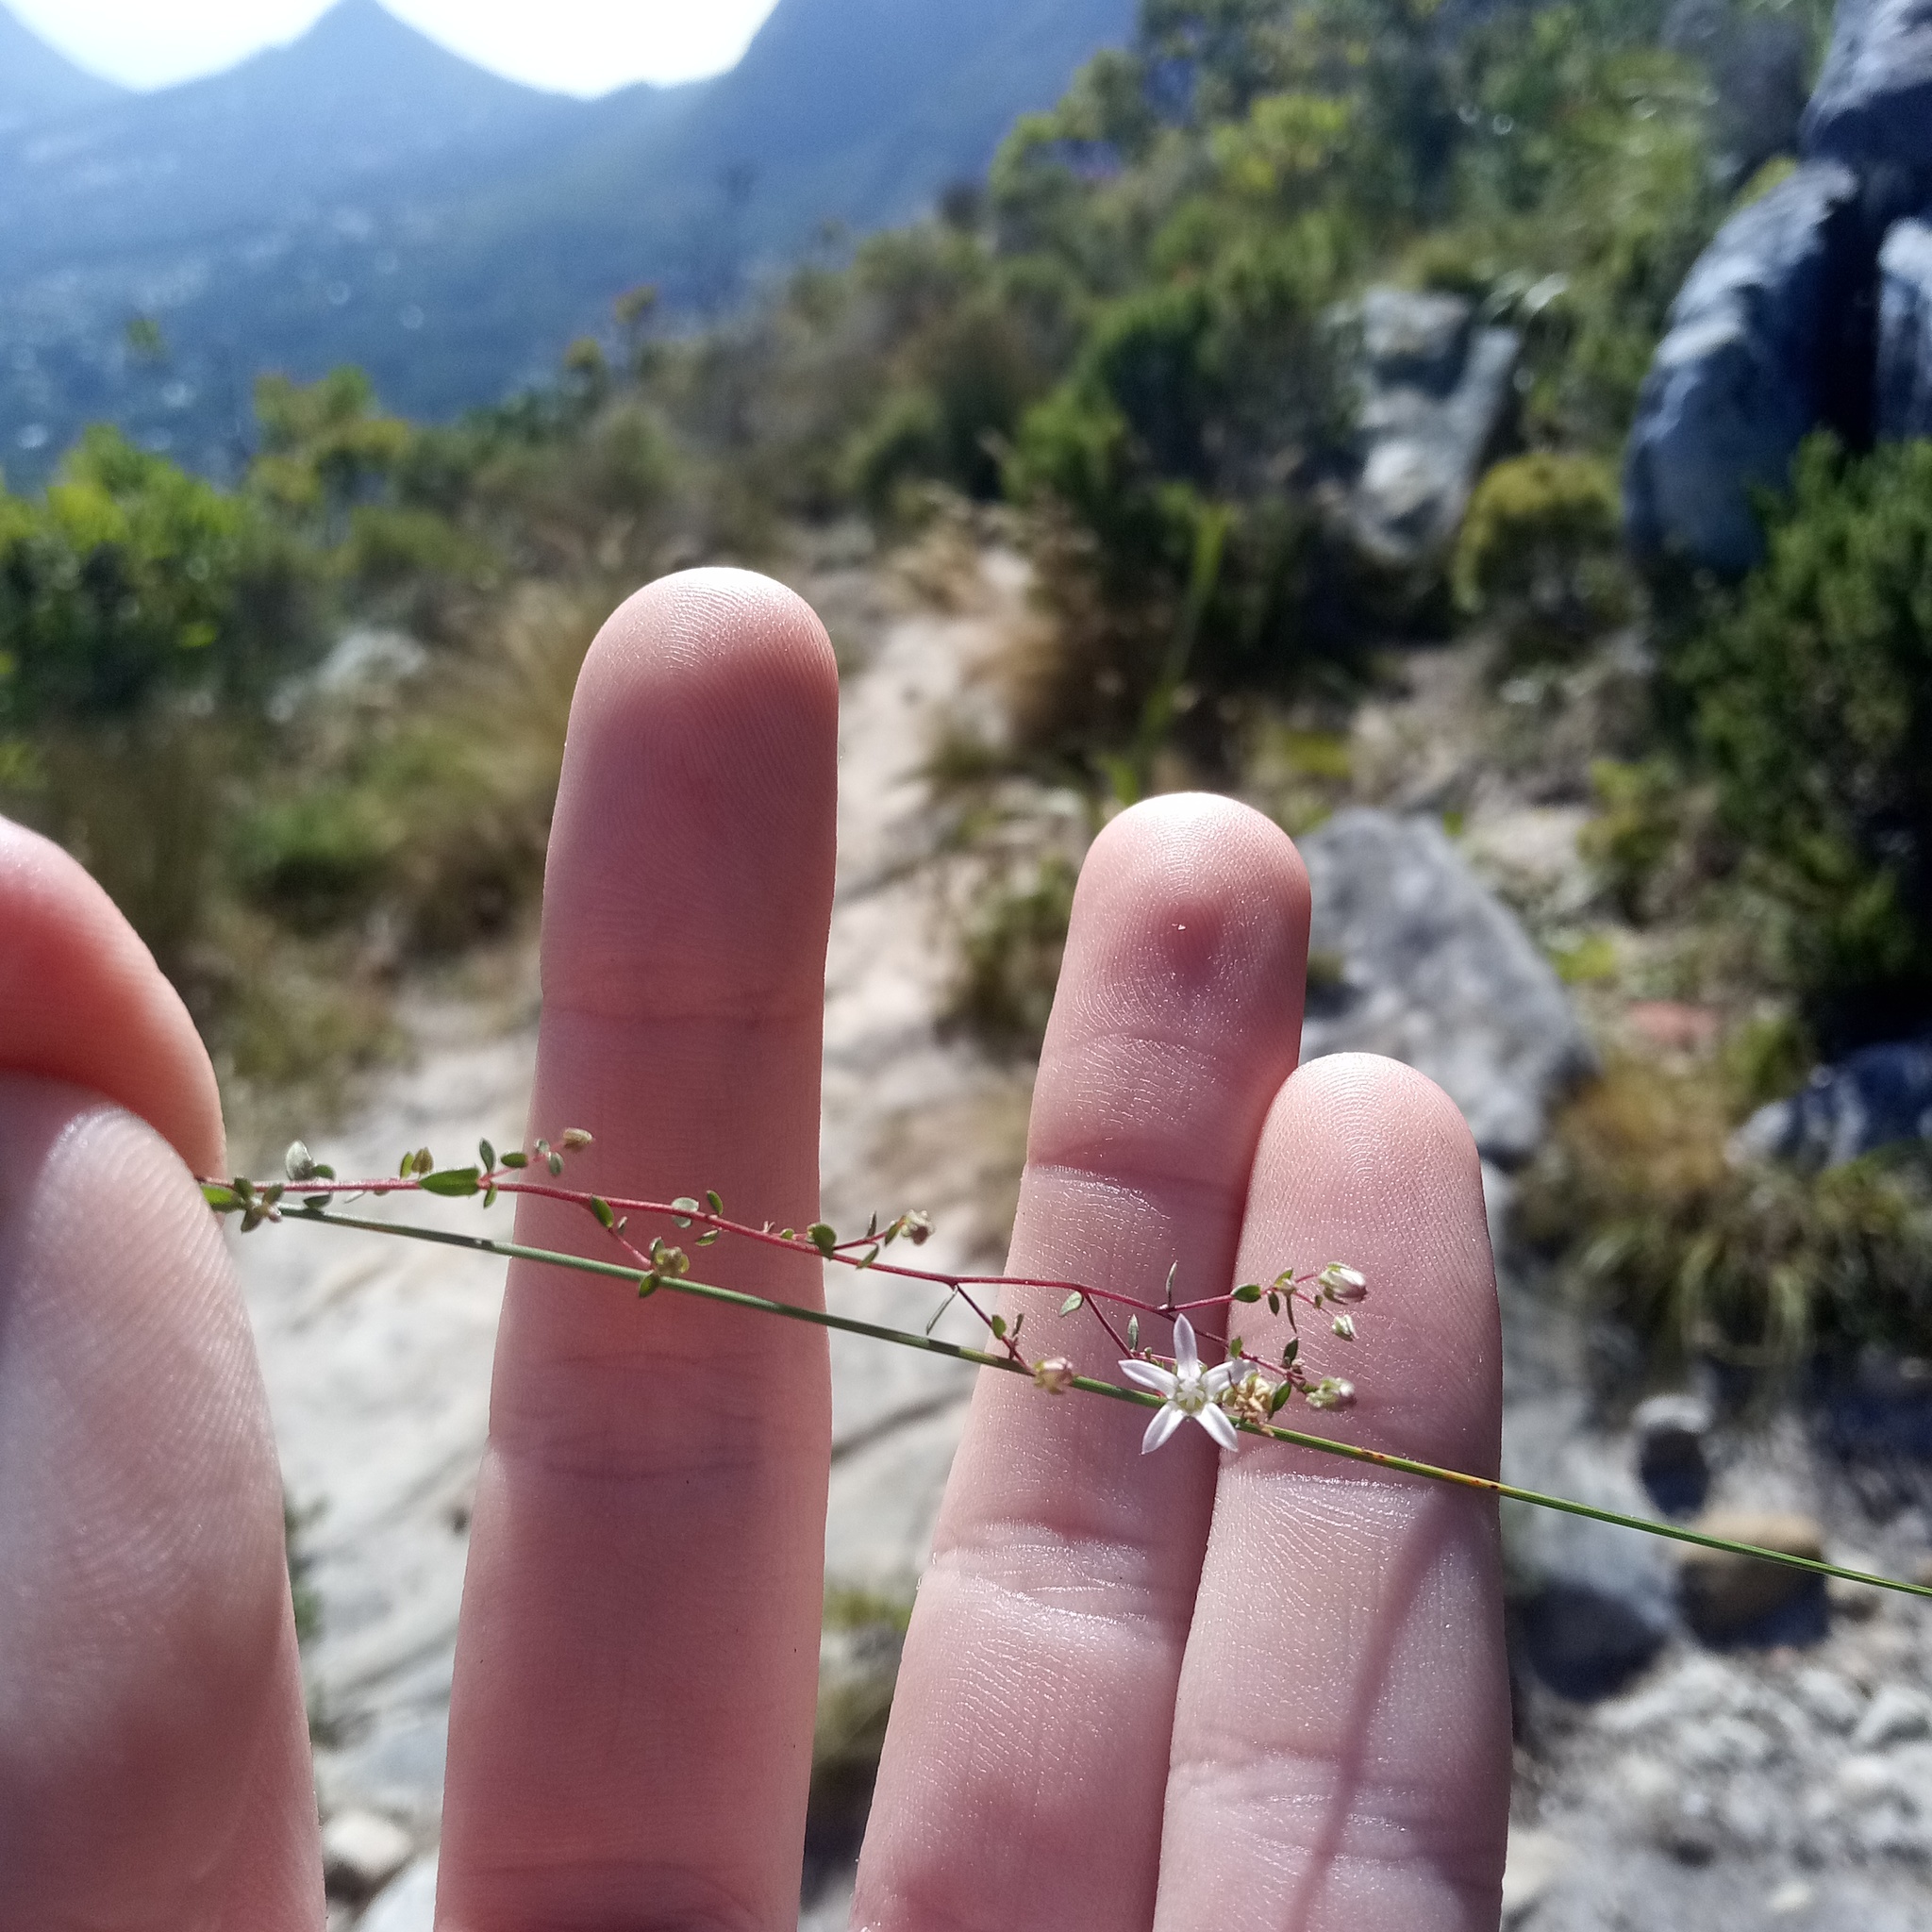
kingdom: Plantae
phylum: Tracheophyta
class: Magnoliopsida
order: Asterales
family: Campanulaceae
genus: Wahlenbergia
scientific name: Wahlenbergia parvifolia
